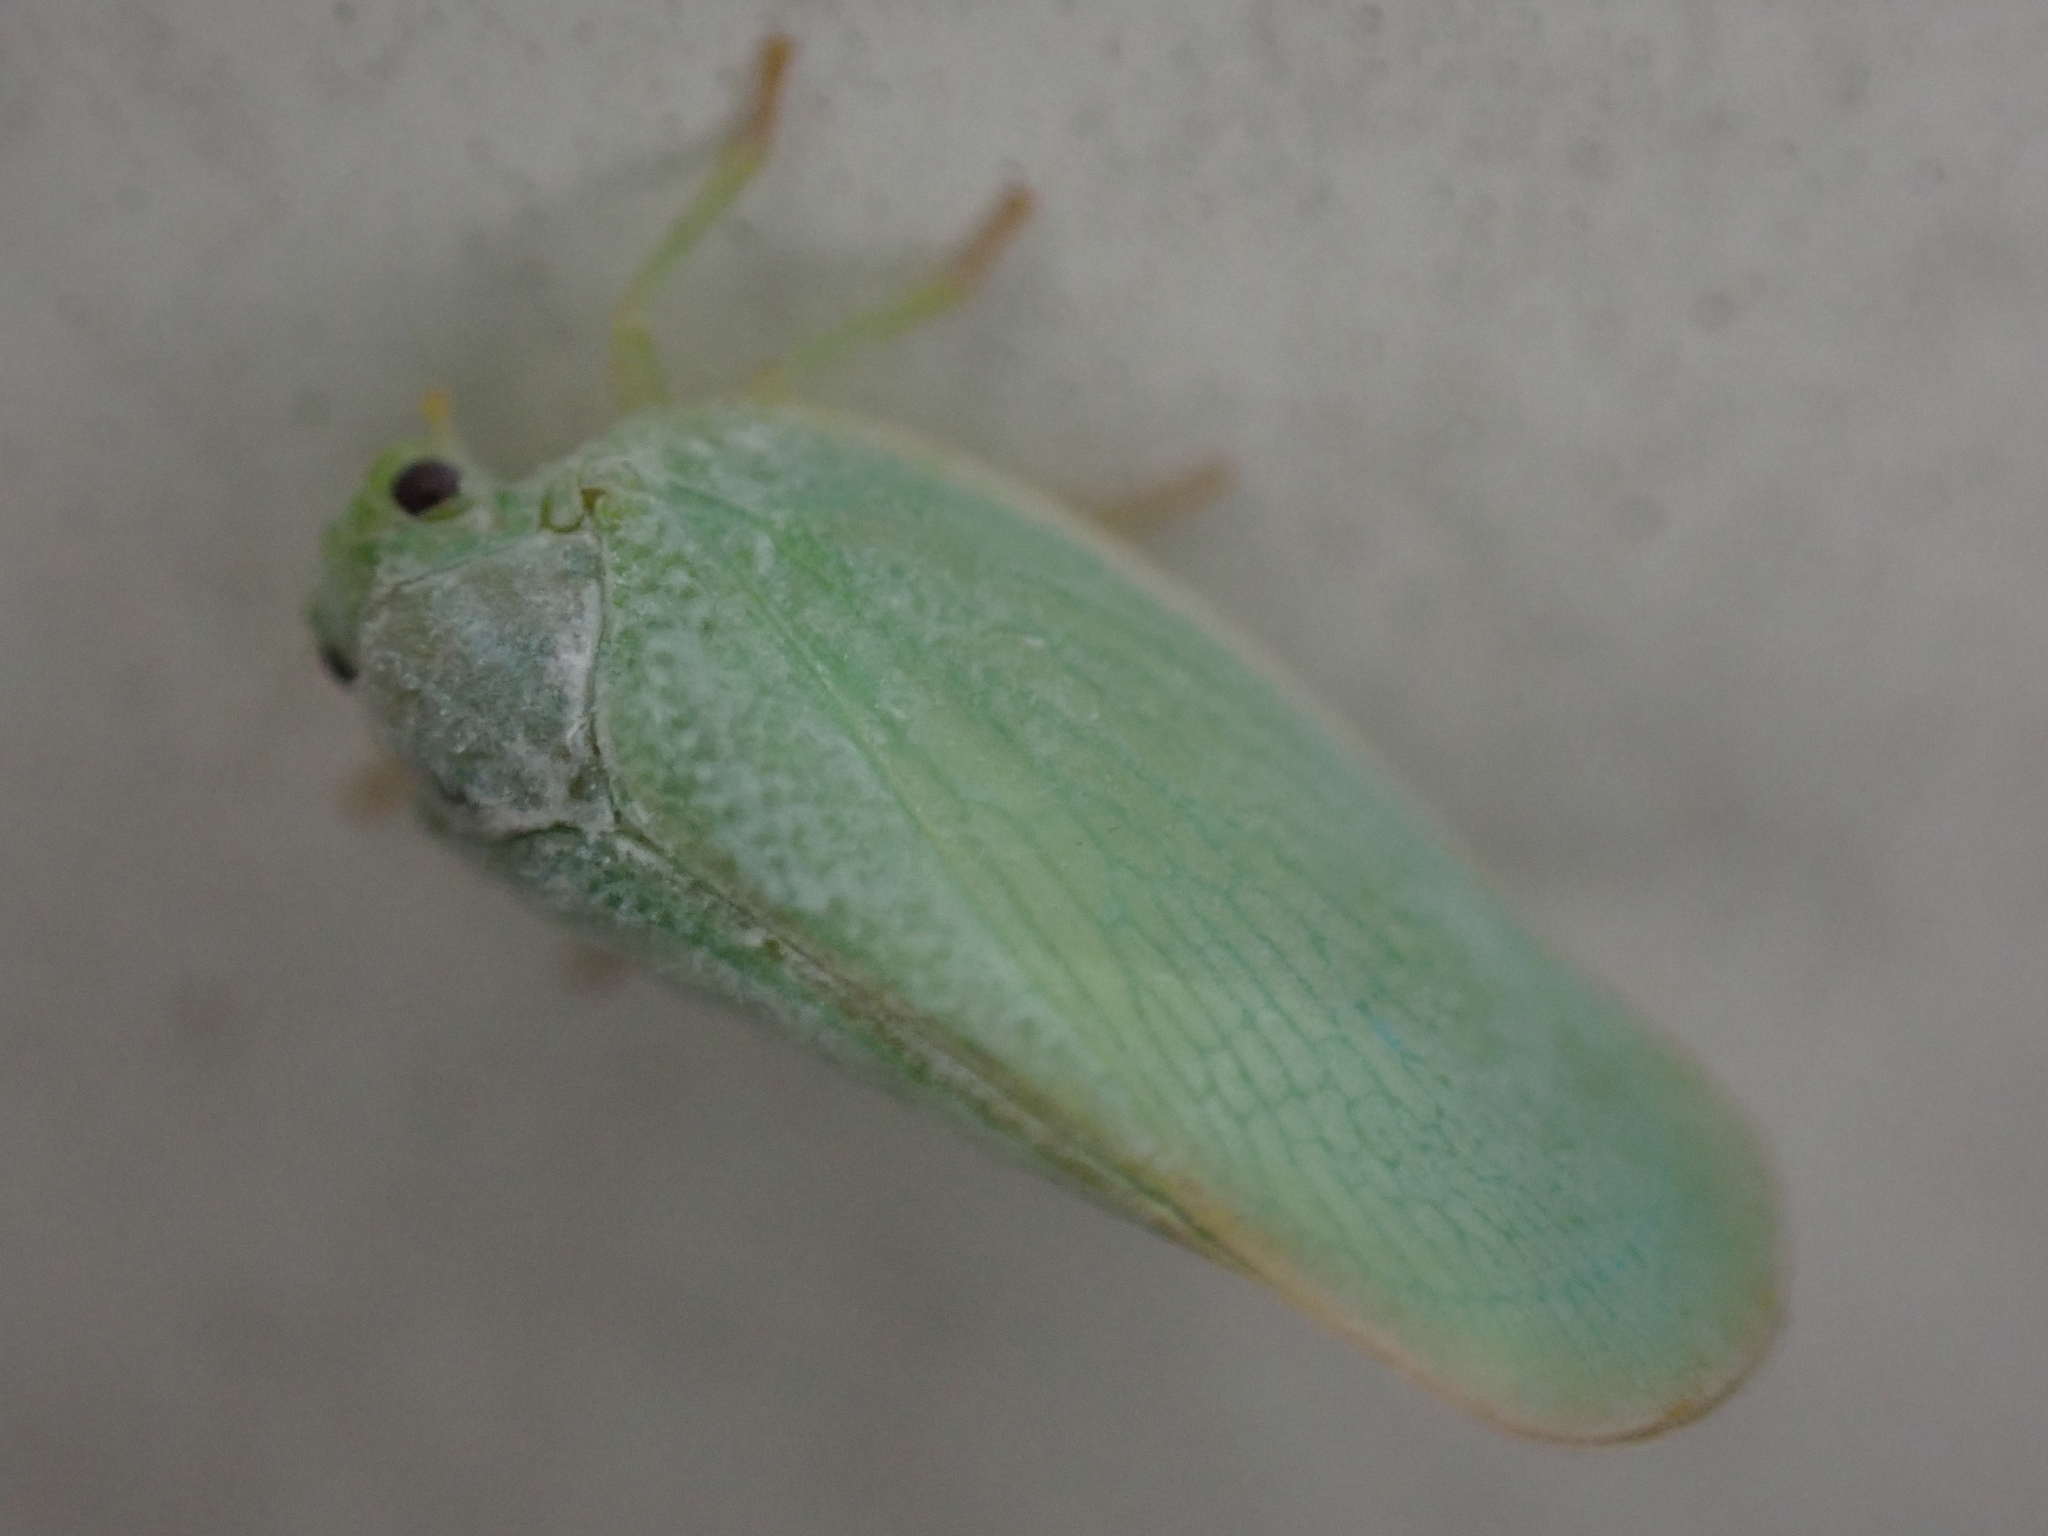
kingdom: Animalia
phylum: Arthropoda
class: Insecta
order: Hemiptera
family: Flatidae
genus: Ormenoides
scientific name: Ormenoides venusta
